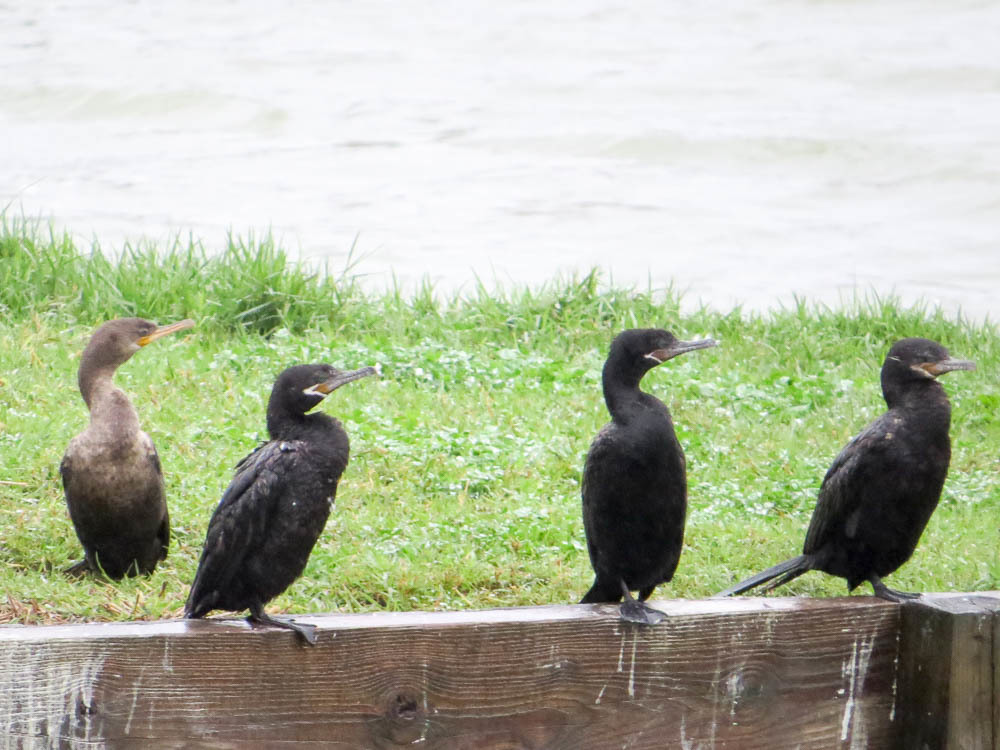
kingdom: Animalia
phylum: Chordata
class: Aves
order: Suliformes
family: Phalacrocoracidae
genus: Phalacrocorax
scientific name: Phalacrocorax brasilianus
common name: Neotropic cormorant
